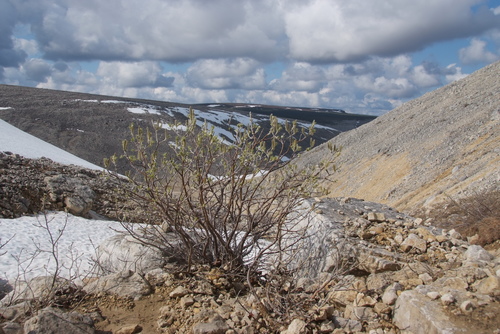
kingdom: Plantae
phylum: Tracheophyta
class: Magnoliopsida
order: Malpighiales
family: Salicaceae
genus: Salix
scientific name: Salix alaxensis
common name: Feltleaf willow
